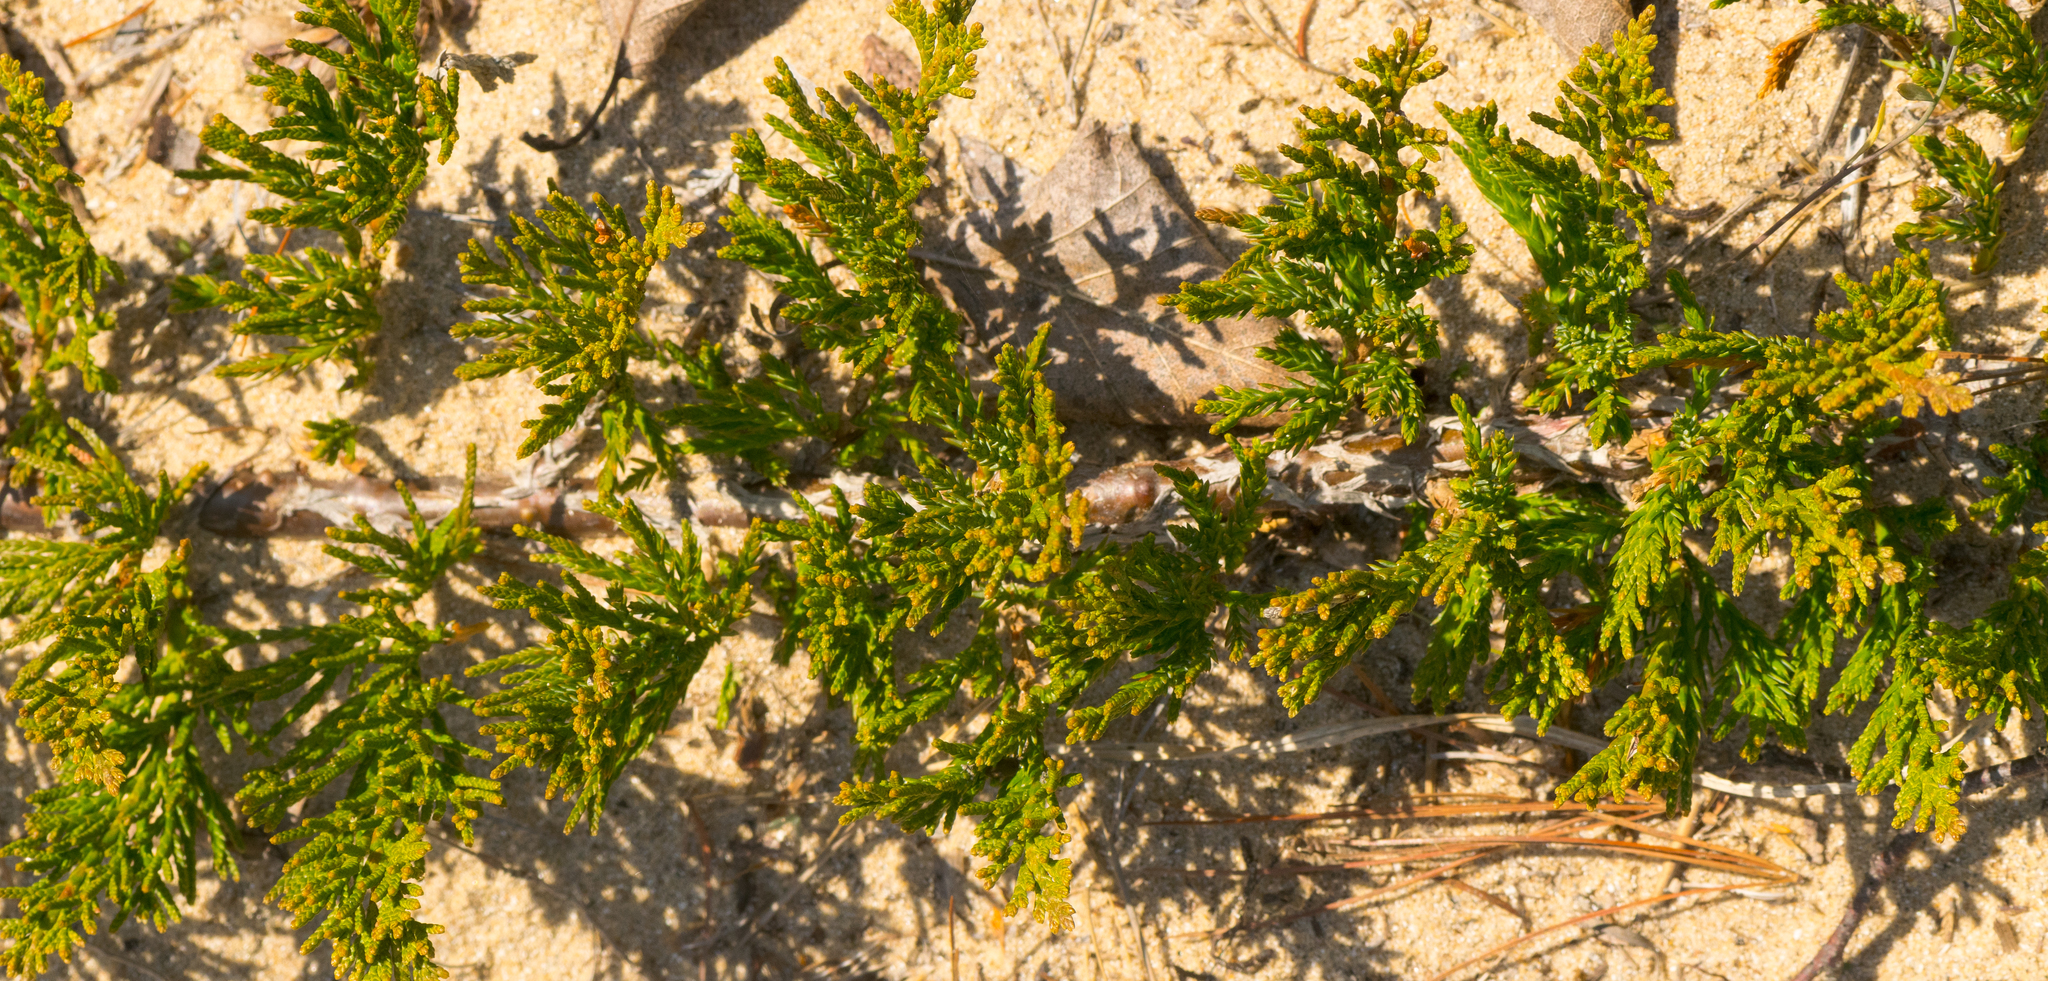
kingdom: Plantae
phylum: Tracheophyta
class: Pinopsida
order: Pinales
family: Cupressaceae
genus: Juniperus
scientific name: Juniperus horizontalis
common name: Creeping juniper
